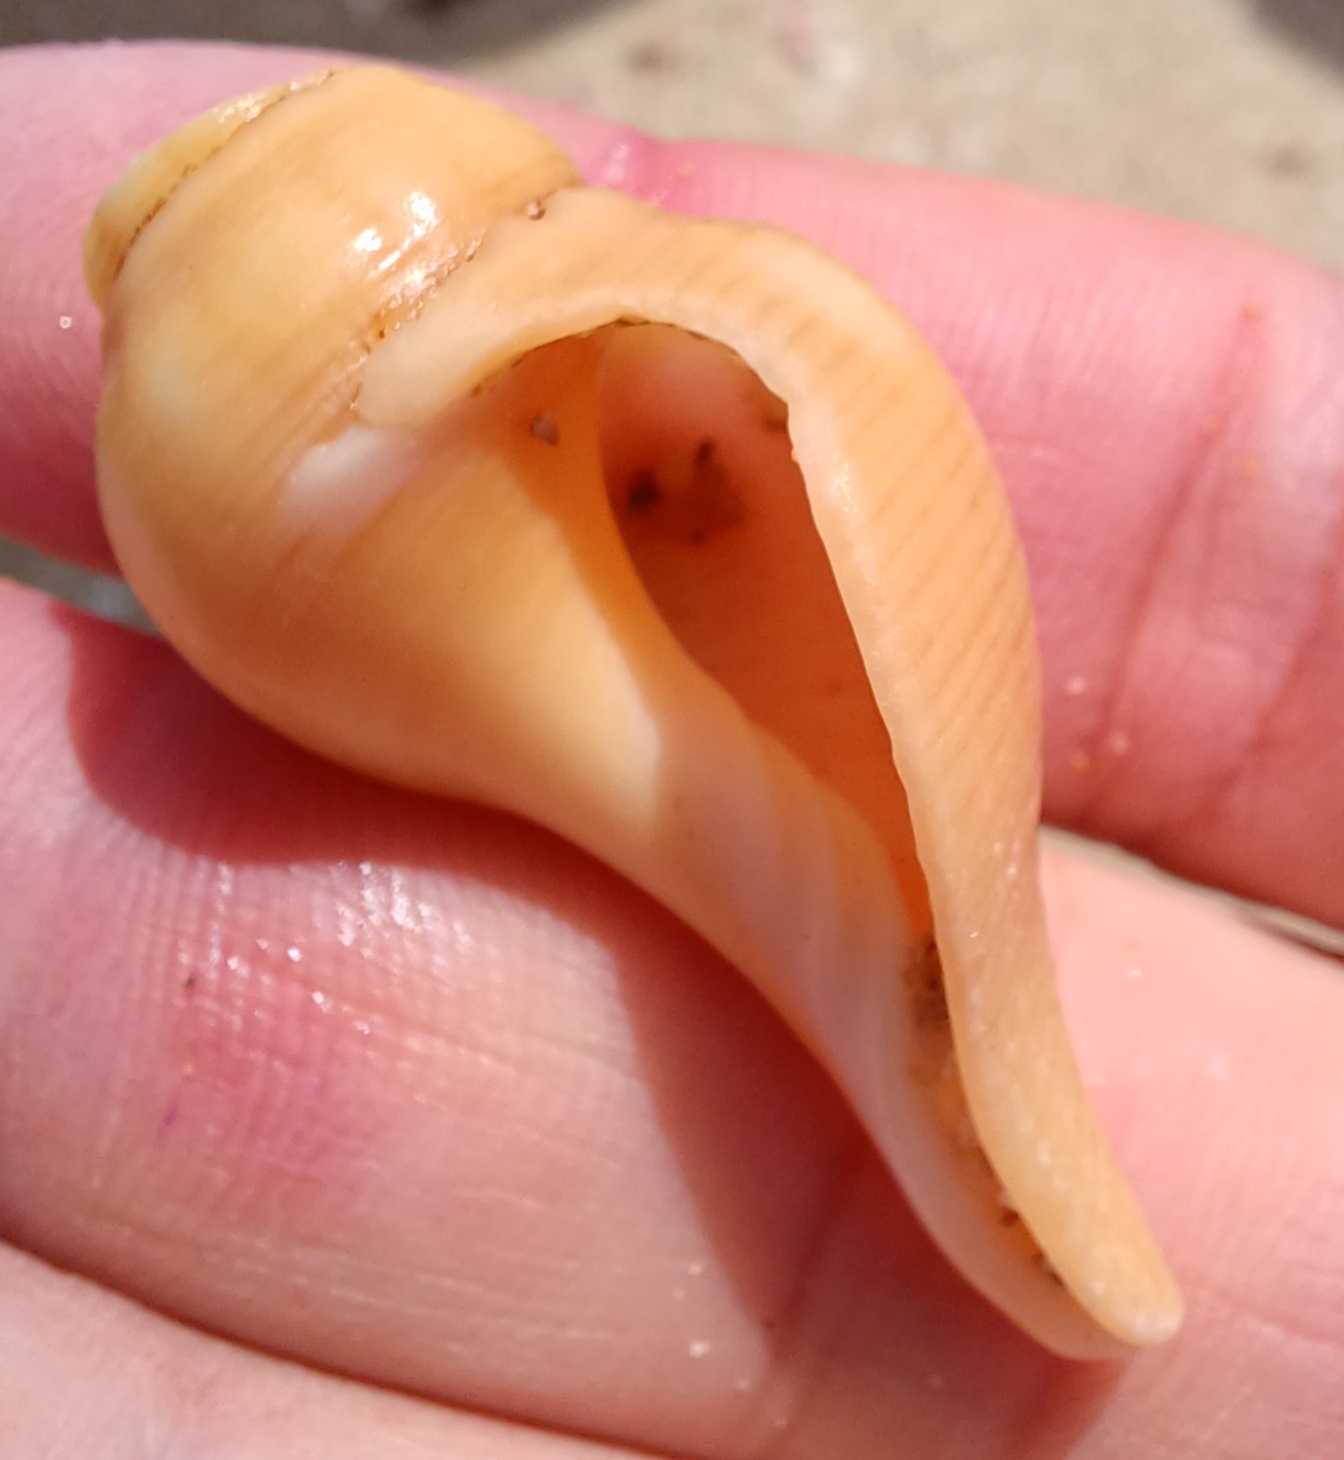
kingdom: Animalia
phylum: Mollusca
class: Gastropoda
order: Neogastropoda
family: Fasciolariidae
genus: Australaria
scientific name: Australaria australasia
